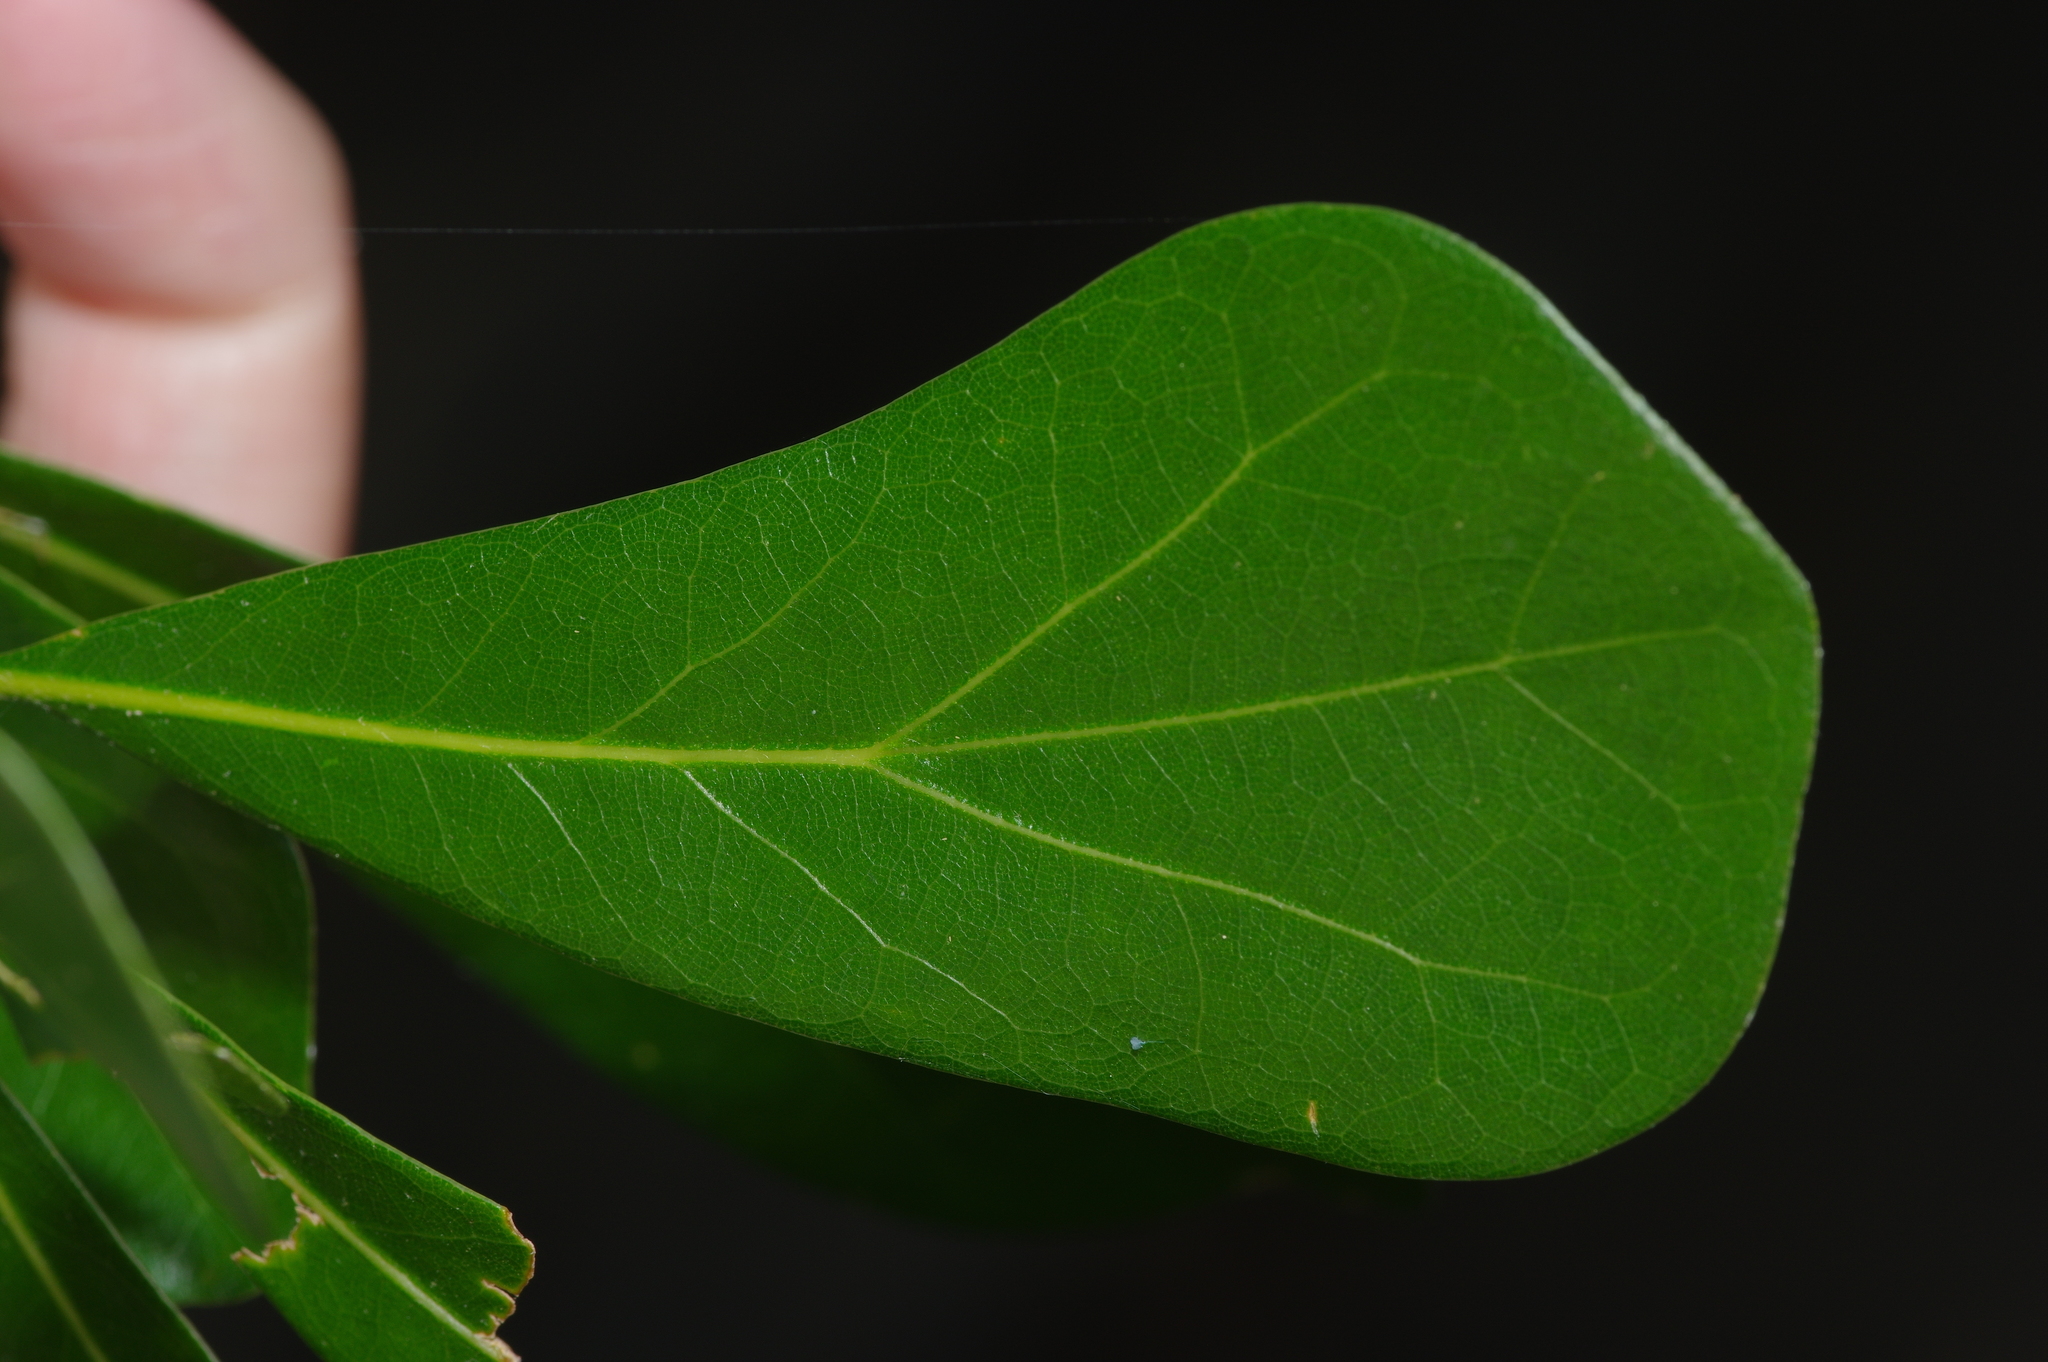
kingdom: Plantae
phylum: Tracheophyta
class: Magnoliopsida
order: Fagales
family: Fagaceae
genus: Quercus
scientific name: Quercus nigra
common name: Water oak
